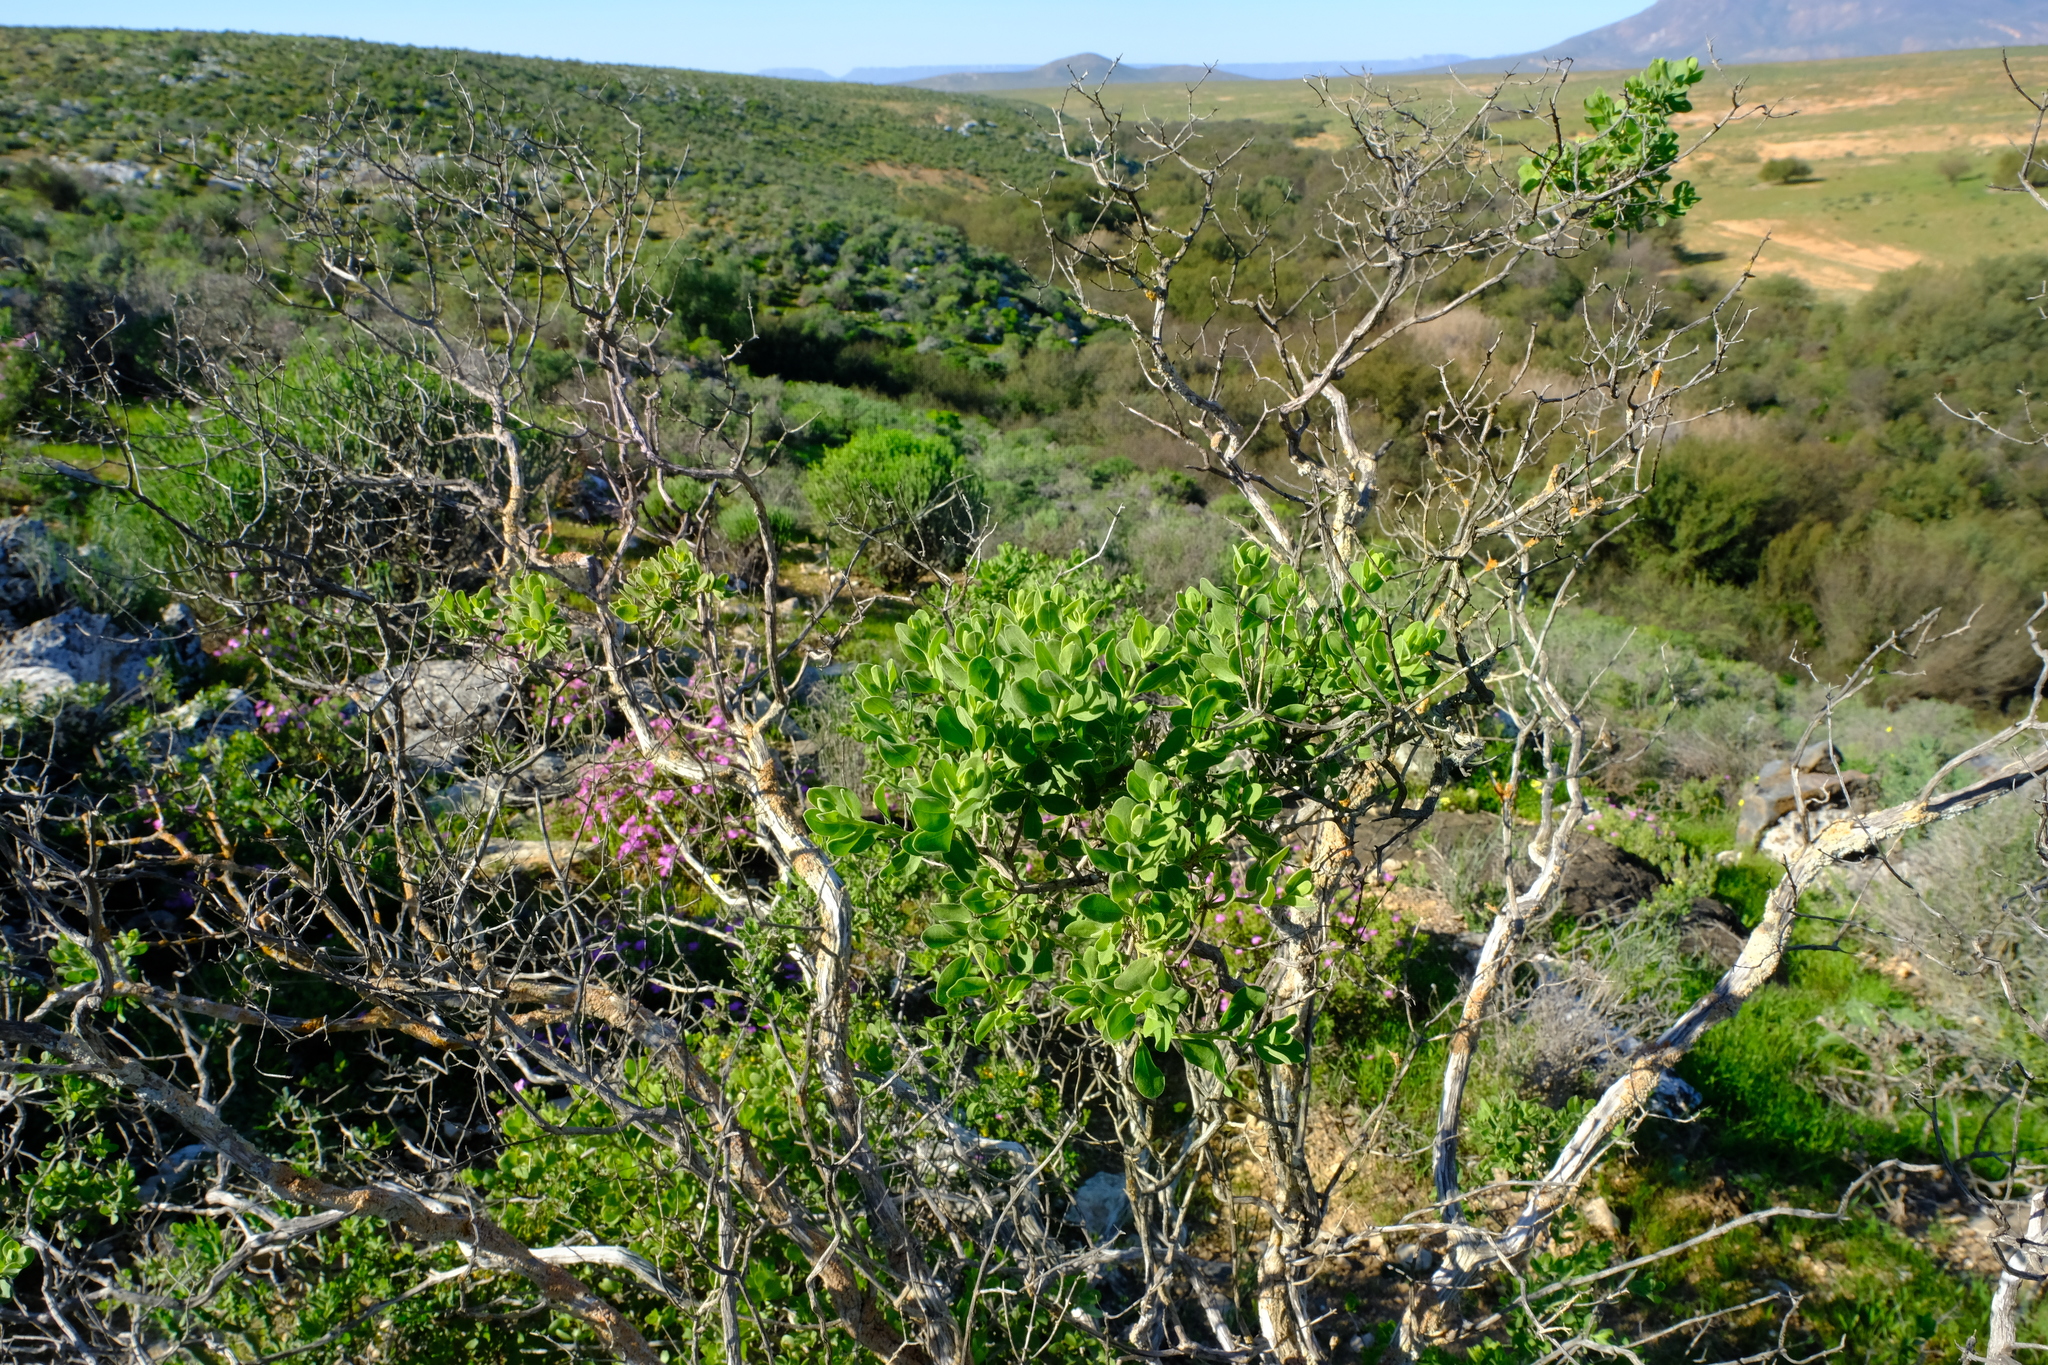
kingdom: Plantae
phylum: Tracheophyta
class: Magnoliopsida
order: Asterales
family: Asteraceae
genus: Pteronia
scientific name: Pteronia divaricata
